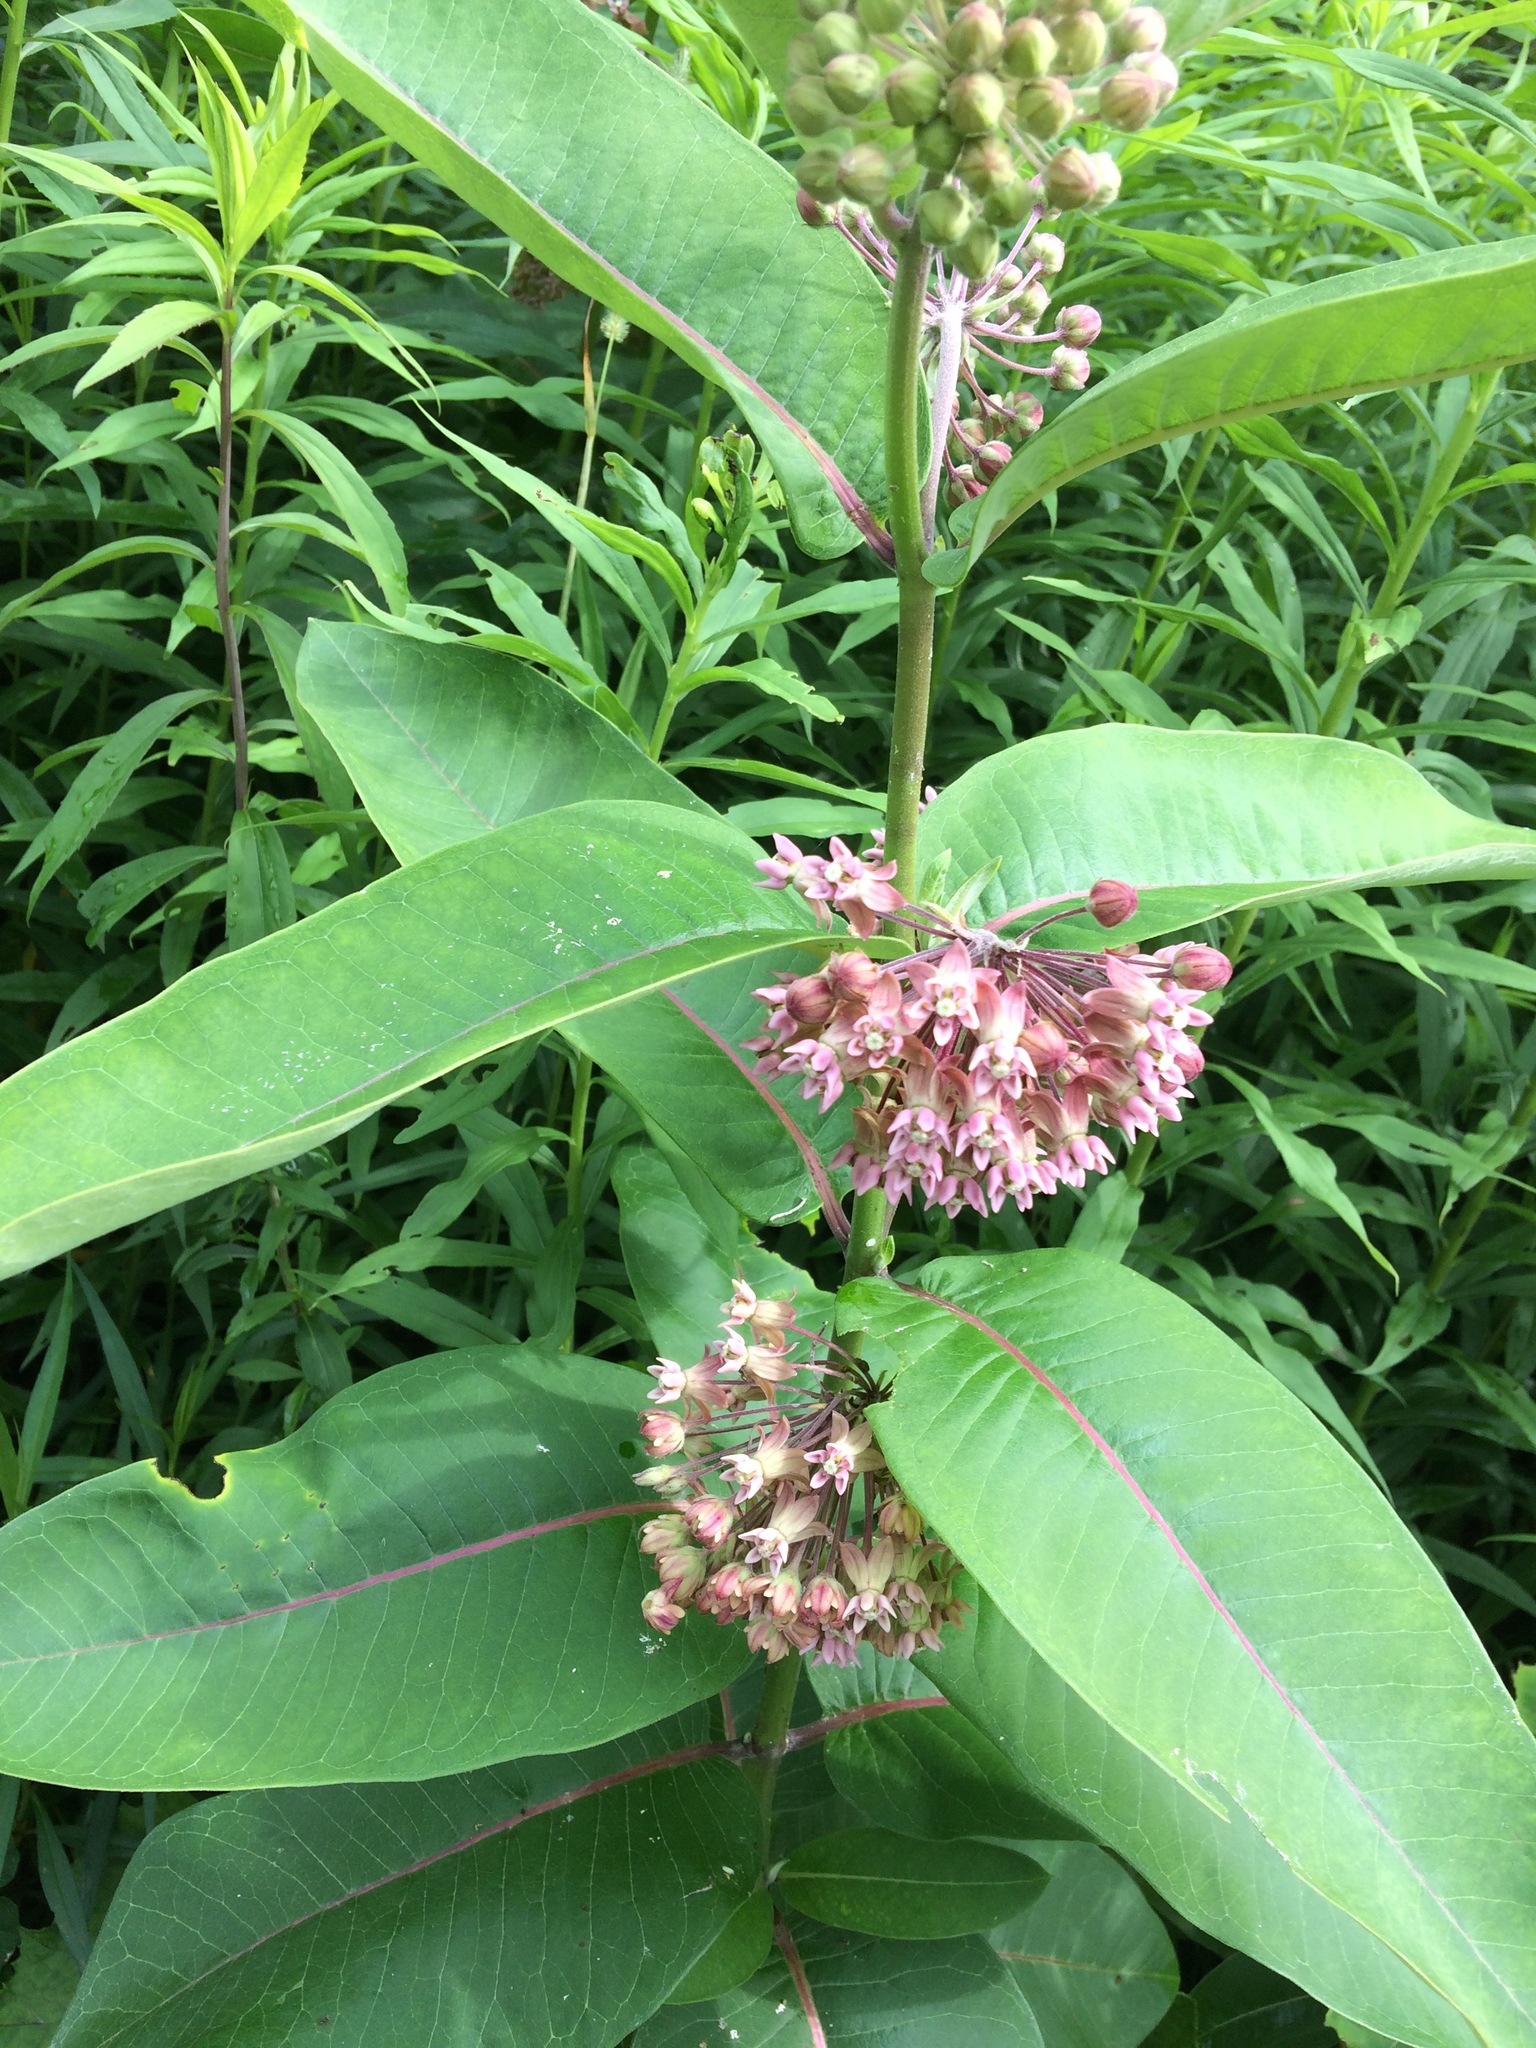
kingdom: Plantae
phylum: Tracheophyta
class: Magnoliopsida
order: Gentianales
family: Apocynaceae
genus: Asclepias
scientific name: Asclepias syriaca
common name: Common milkweed
